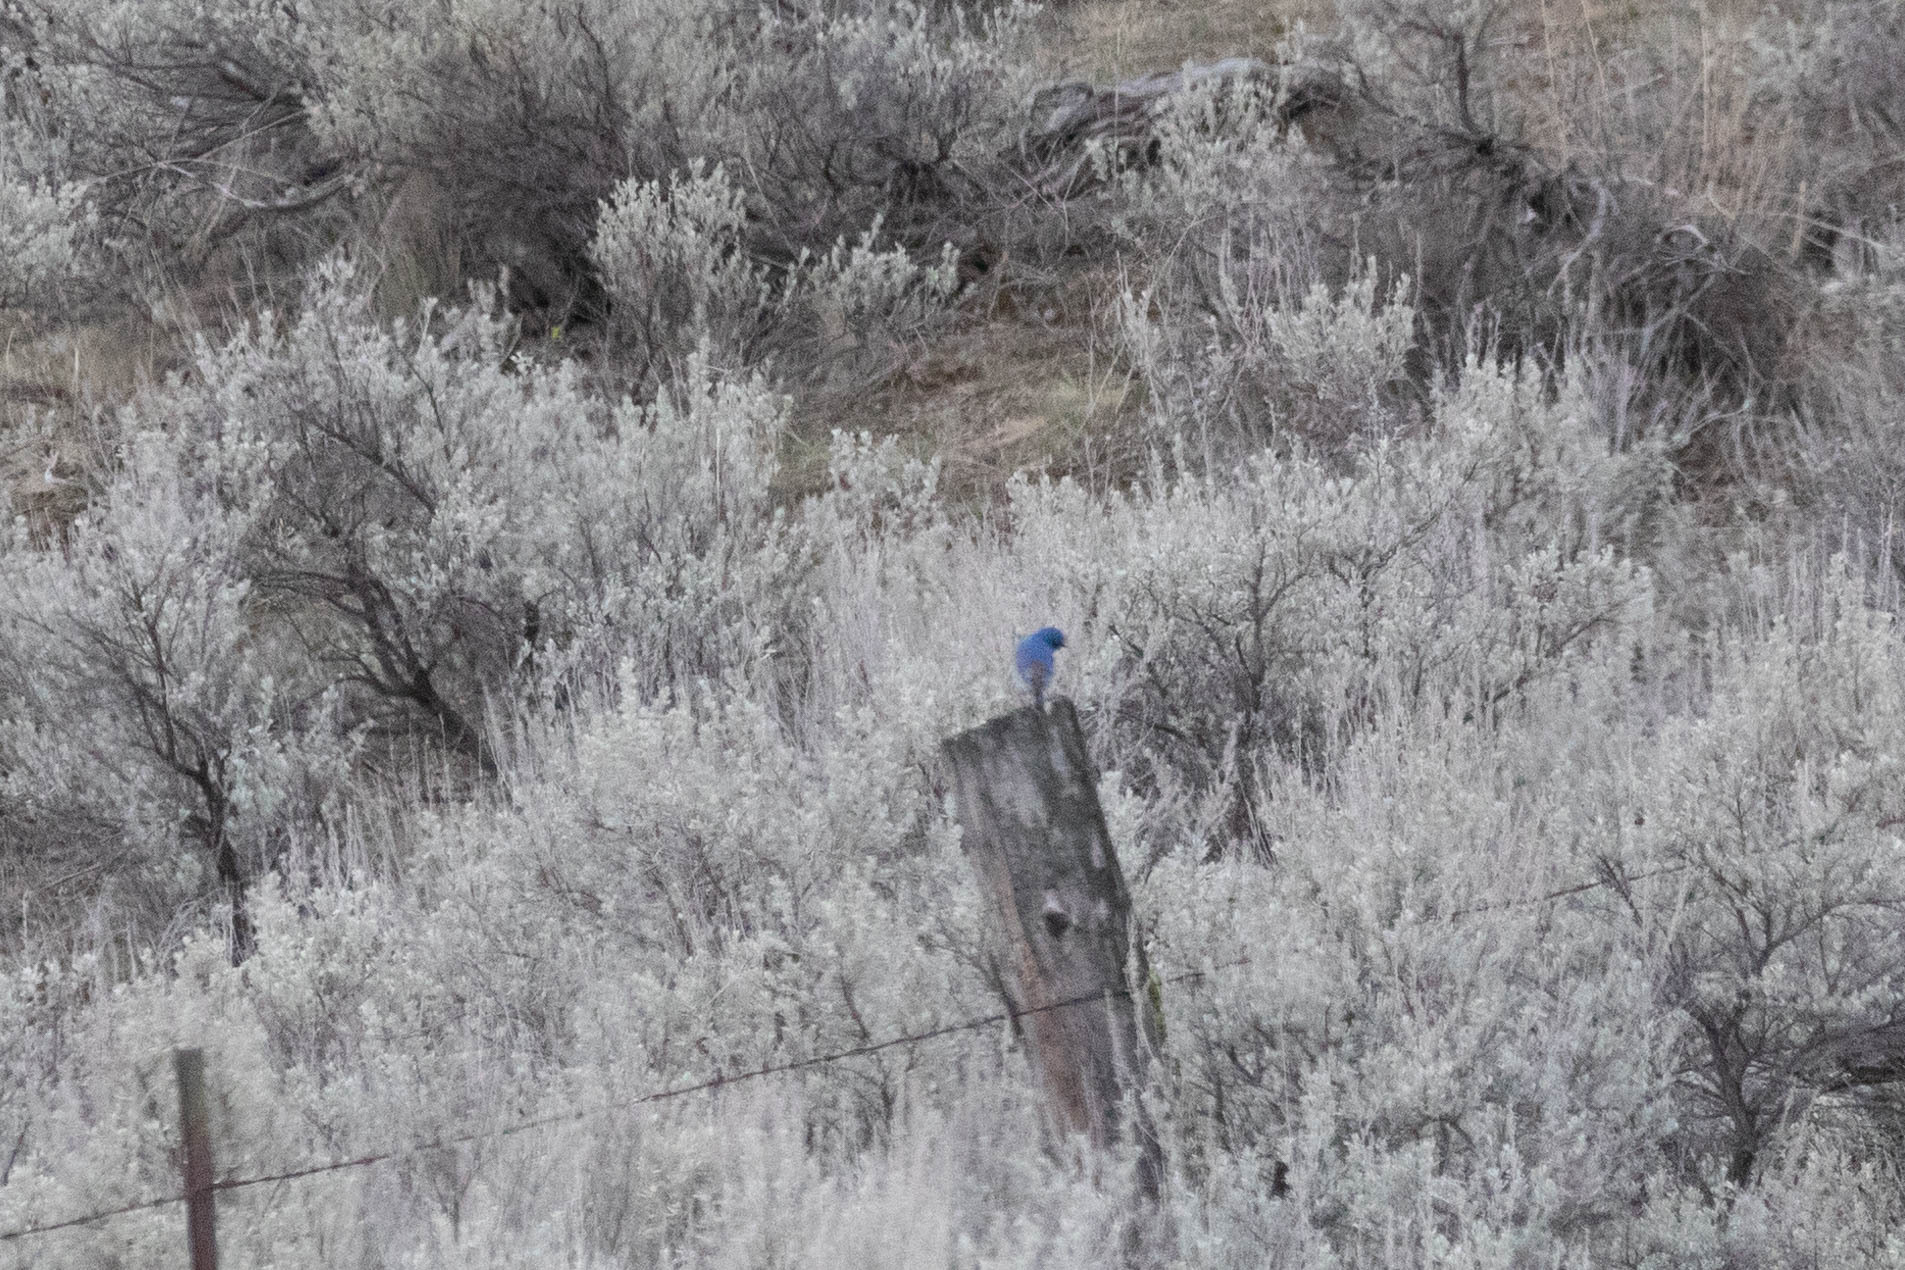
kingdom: Animalia
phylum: Chordata
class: Aves
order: Passeriformes
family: Turdidae
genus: Sialia
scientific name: Sialia currucoides
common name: Mountain bluebird
